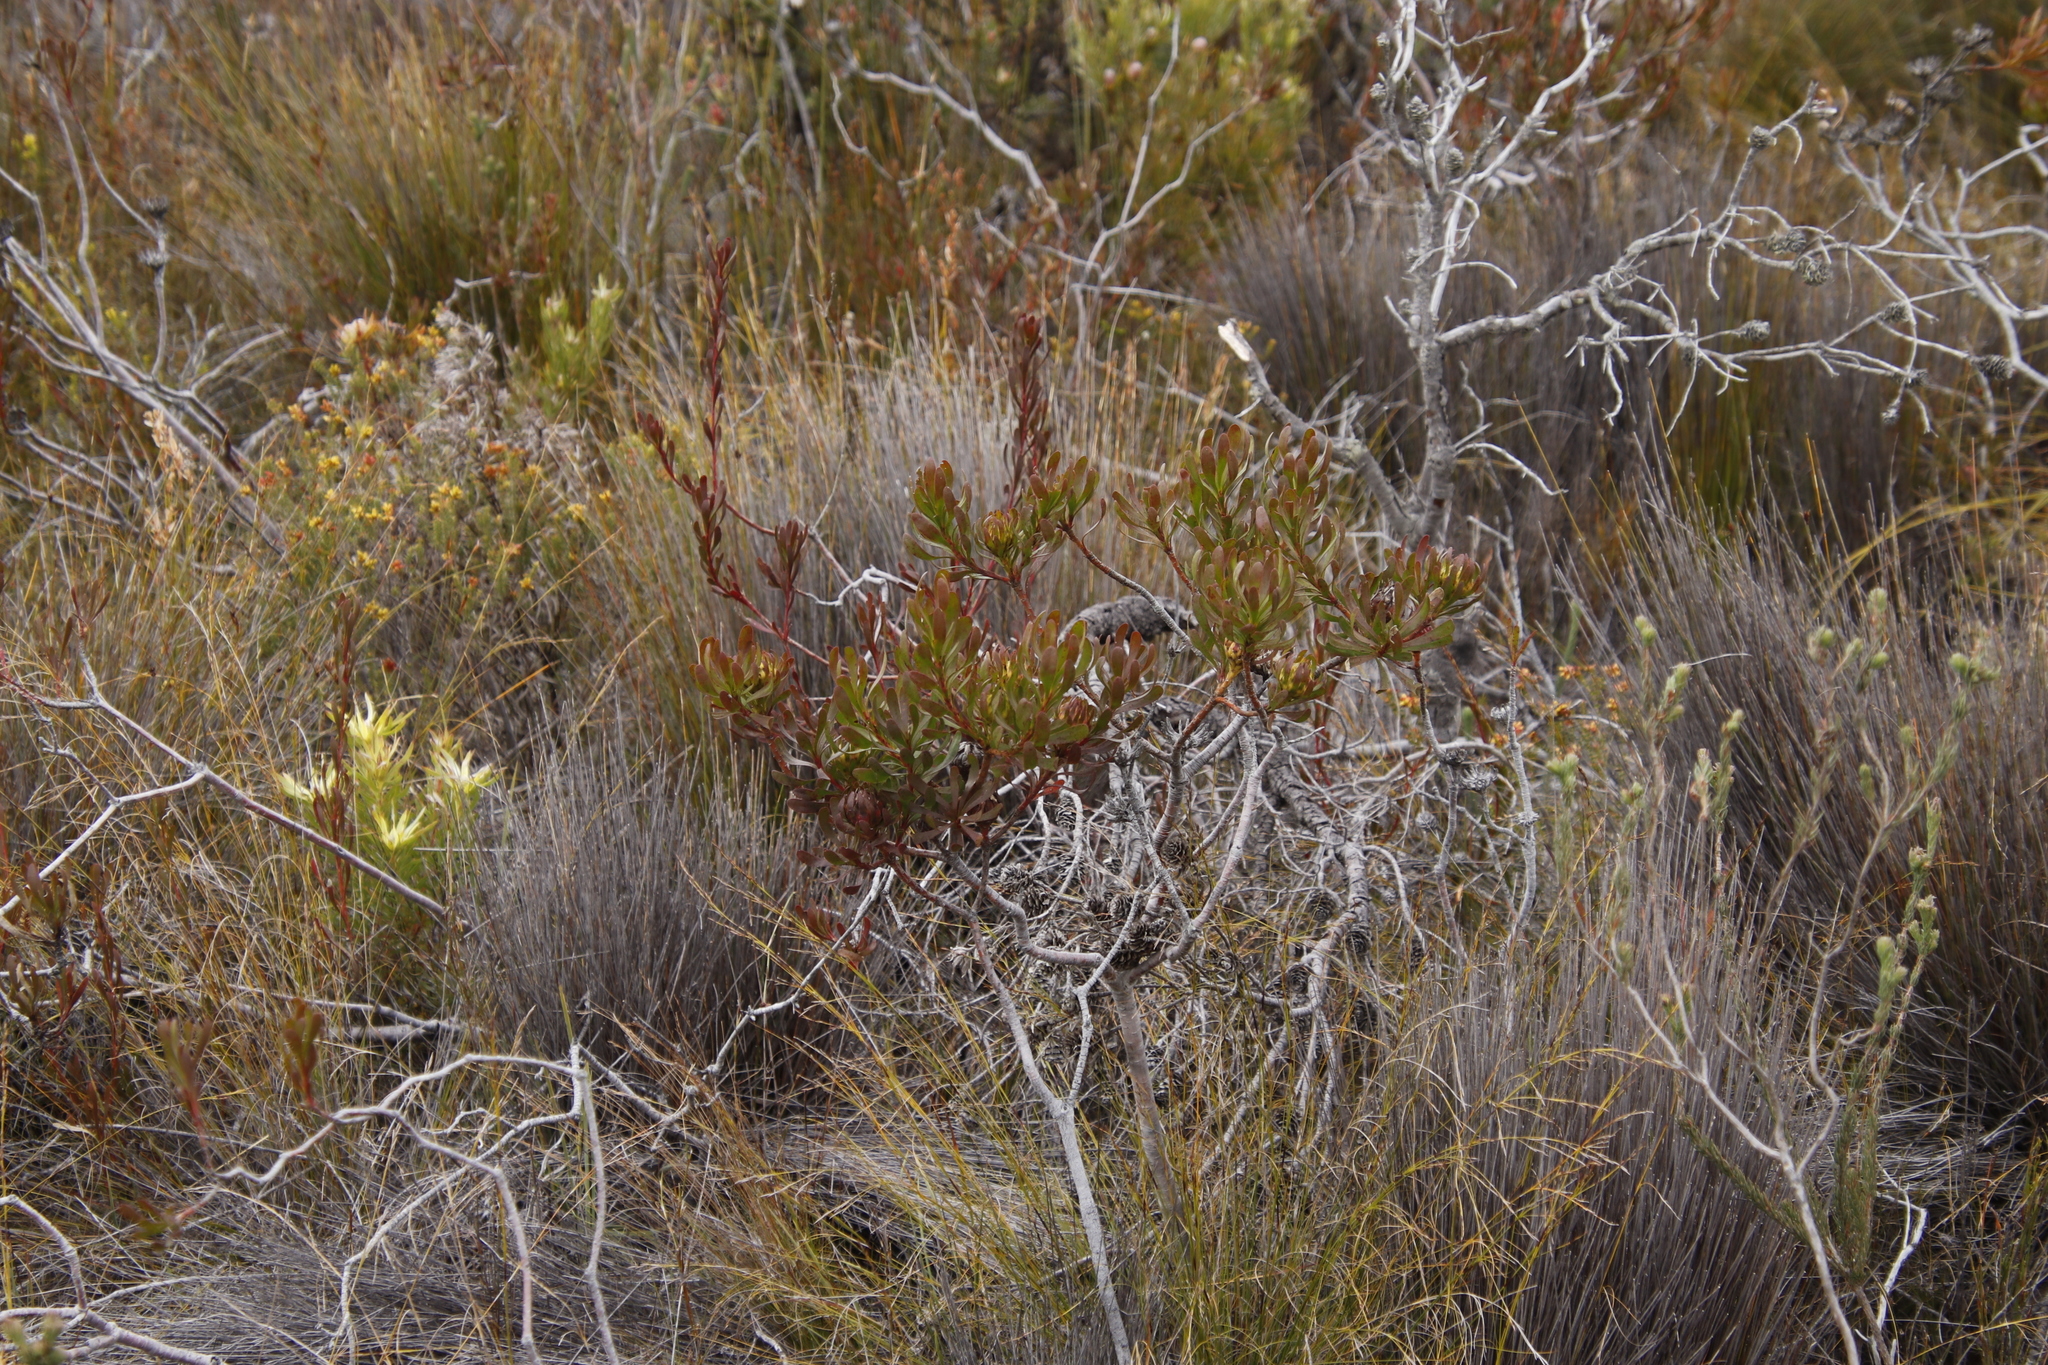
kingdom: Plantae
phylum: Tracheophyta
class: Magnoliopsida
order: Proteales
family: Proteaceae
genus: Aulax
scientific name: Aulax umbellata
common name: Broad-leaf featherbush
